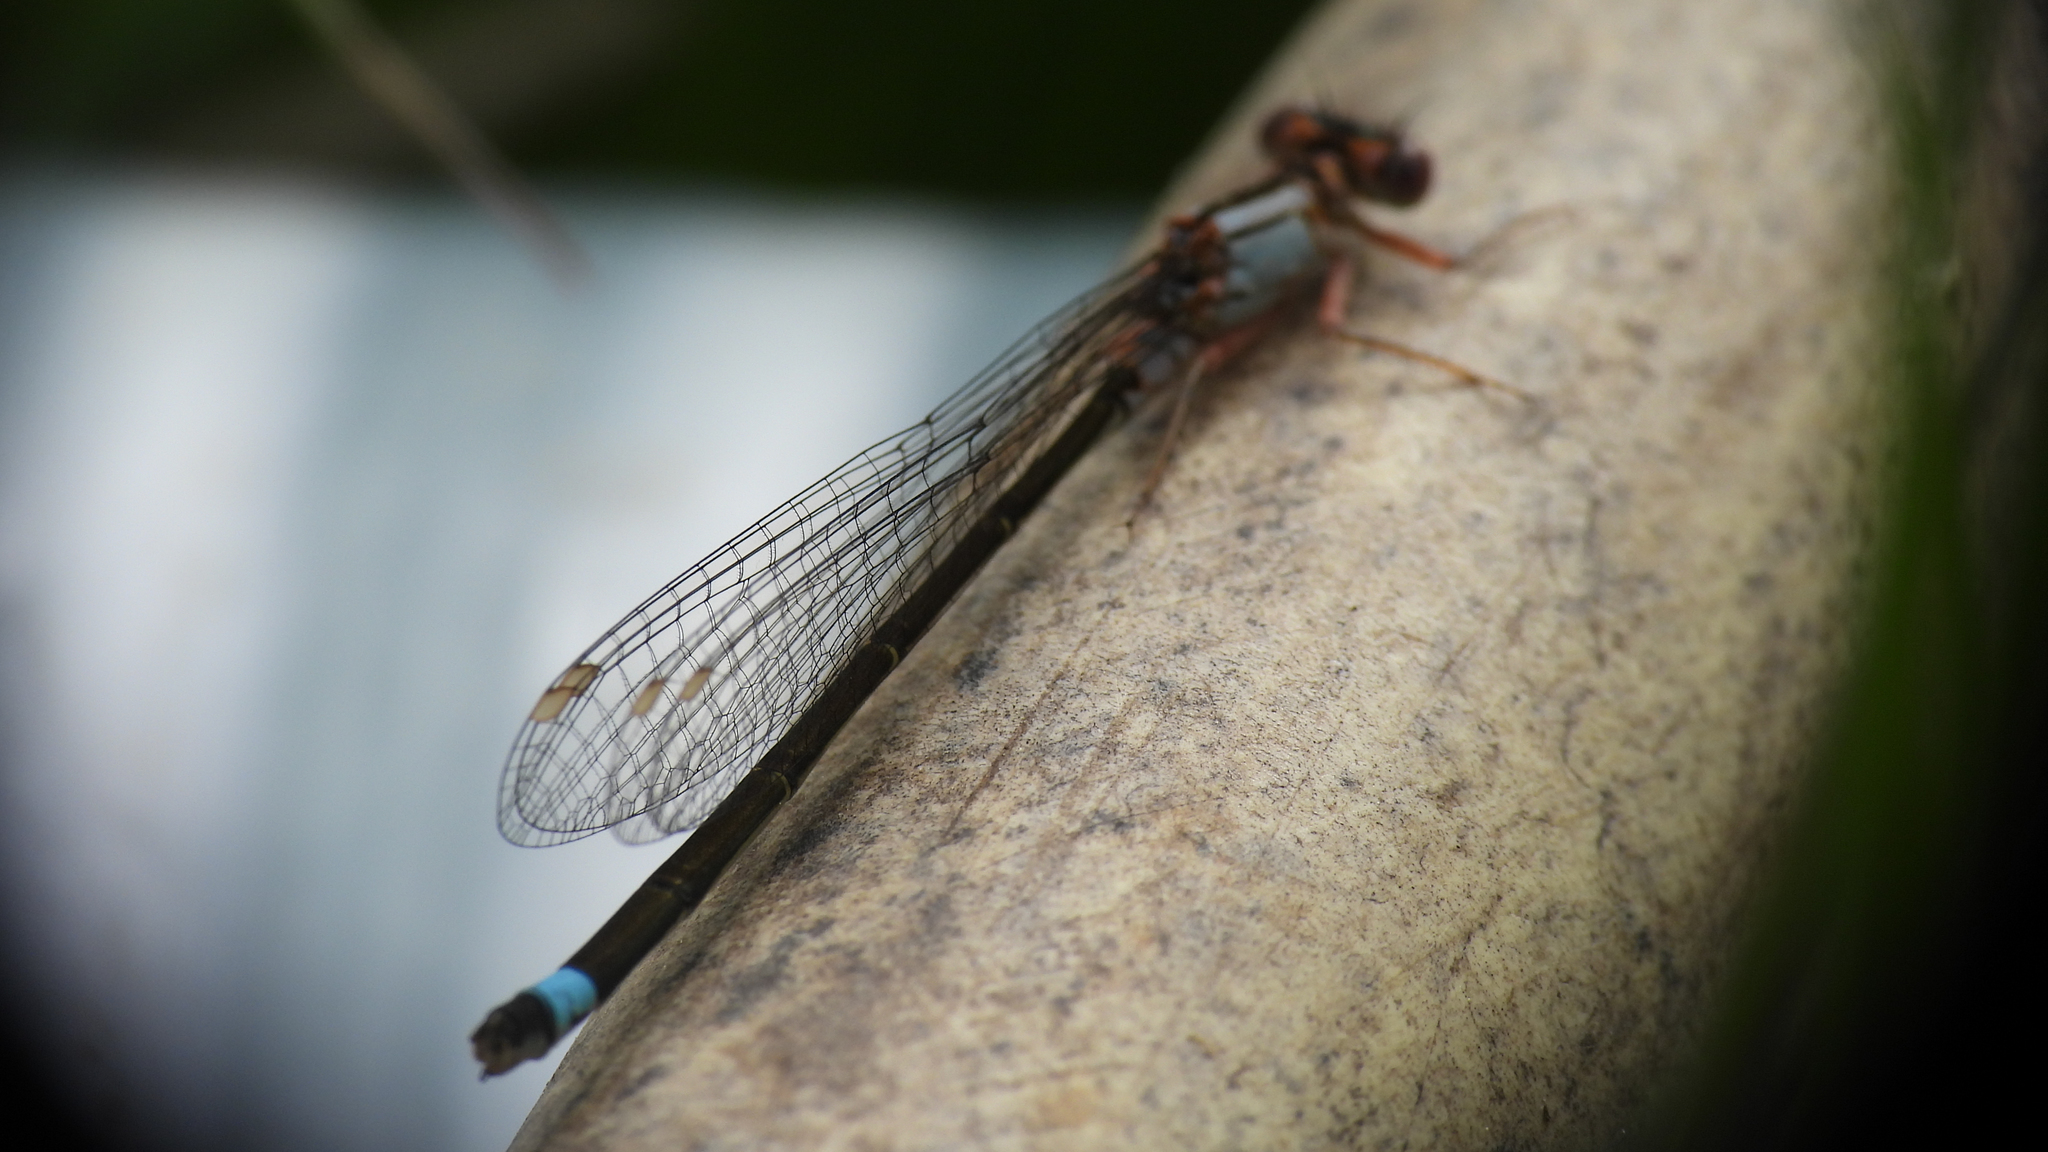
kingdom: Animalia
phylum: Arthropoda
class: Insecta
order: Odonata
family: Coenagrionidae
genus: Ischnura
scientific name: Ischnura cervula
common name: Pacific forktail
